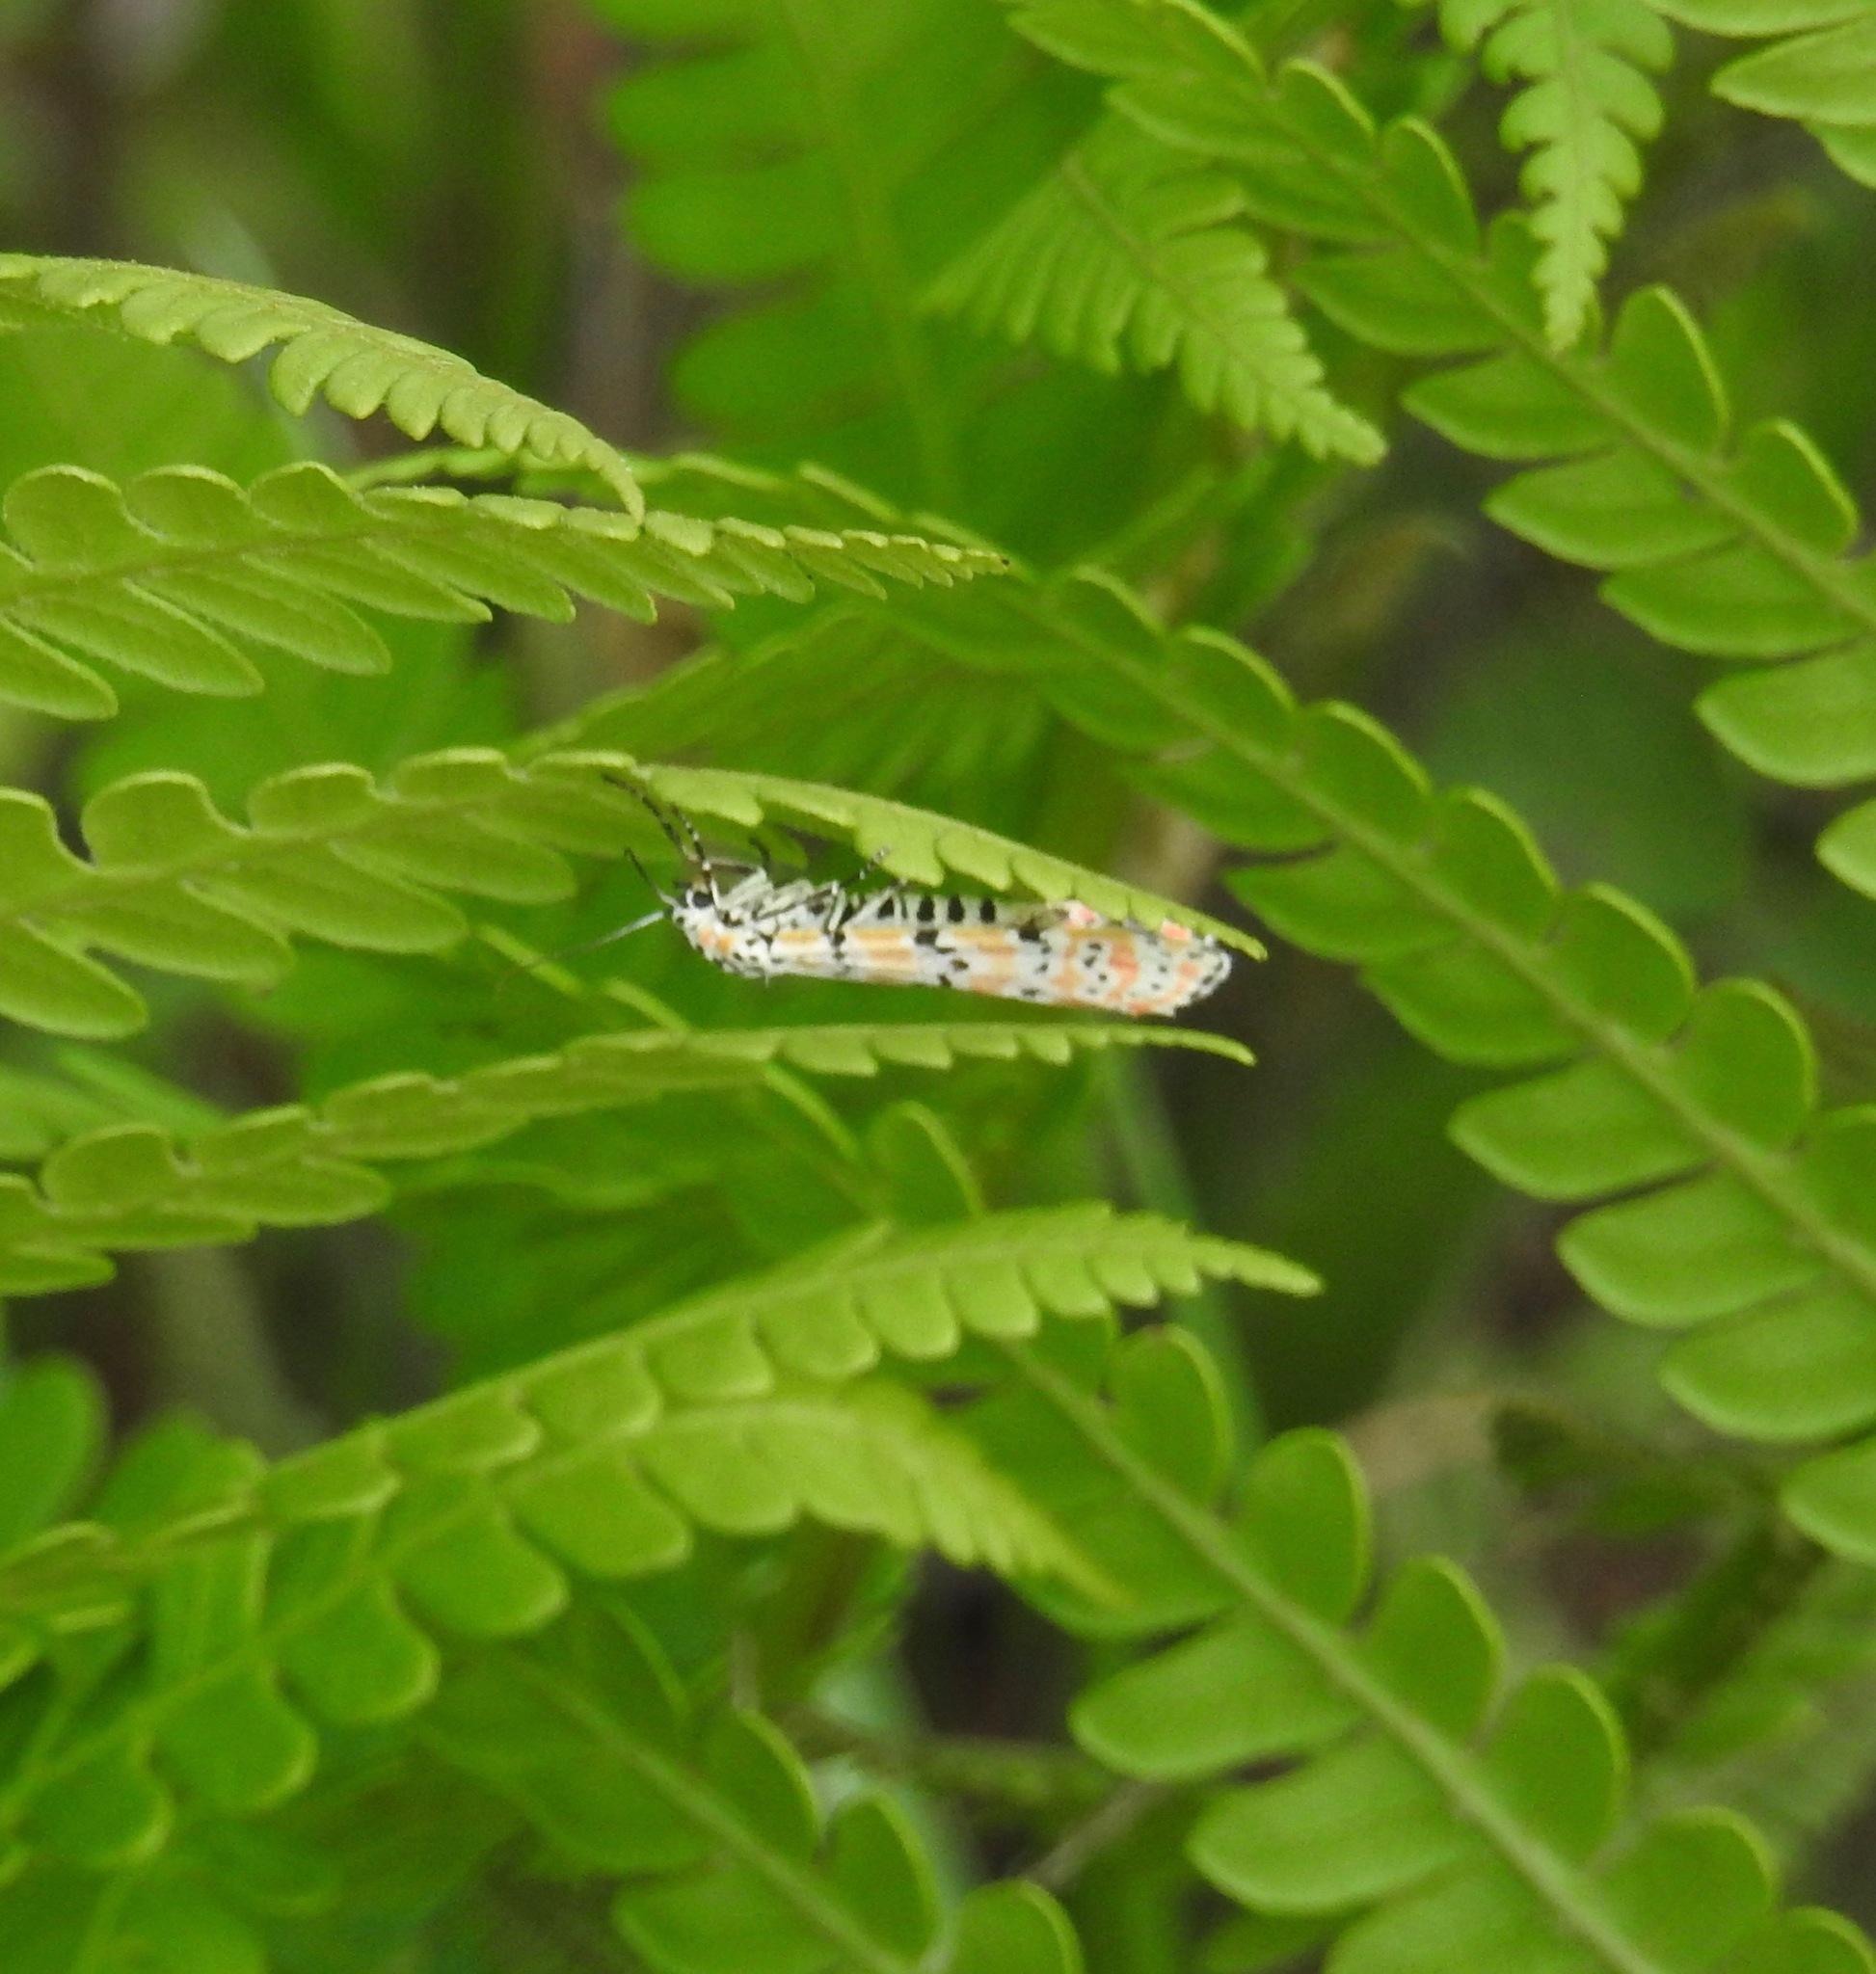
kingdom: Animalia
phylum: Arthropoda
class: Insecta
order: Lepidoptera
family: Erebidae
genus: Utetheisa
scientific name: Utetheisa ornatrix
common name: Beautiful utetheisa
